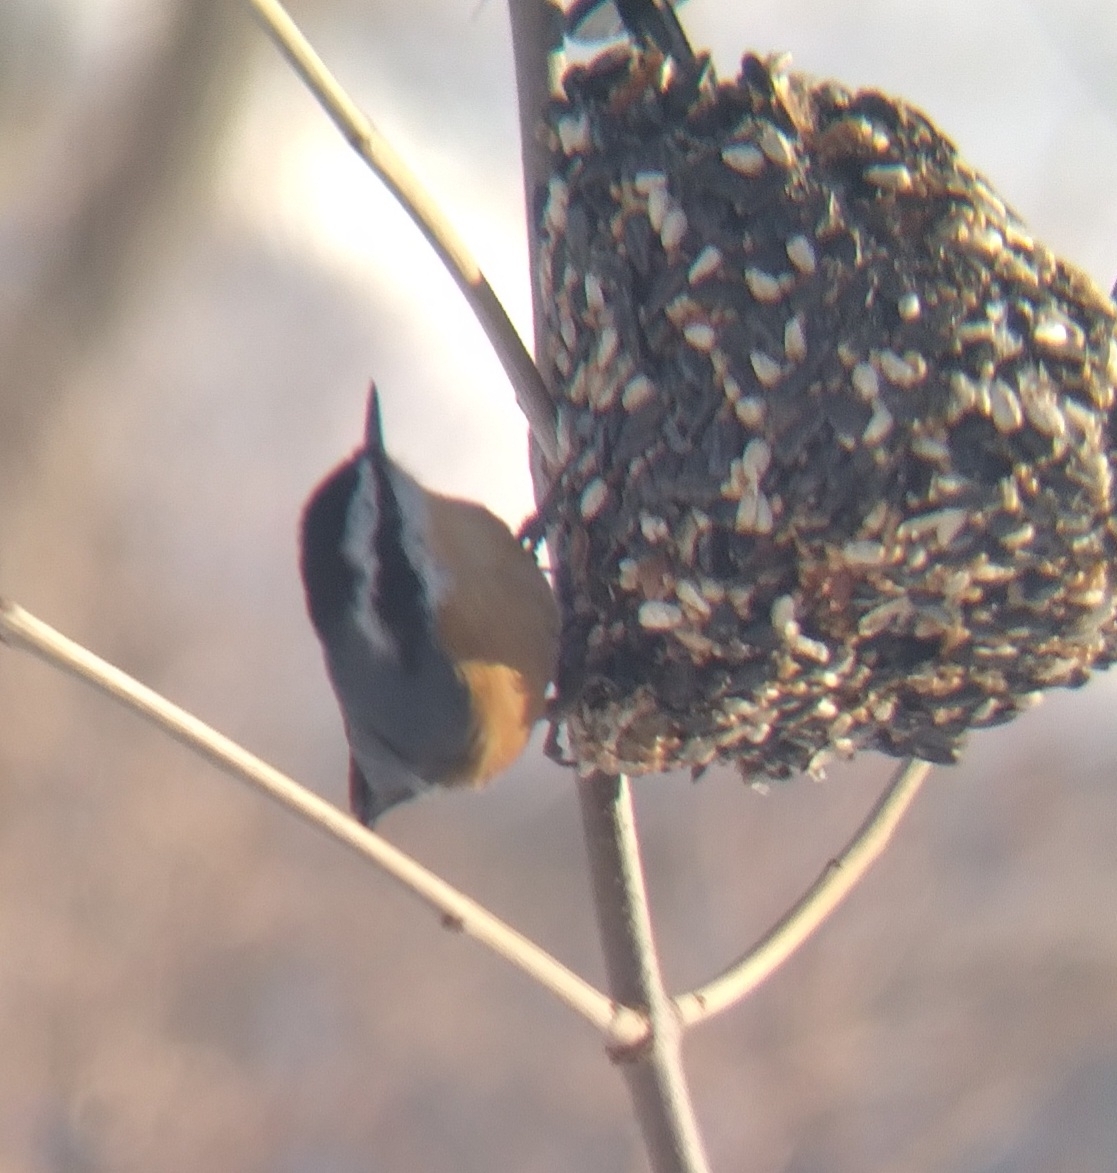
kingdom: Animalia
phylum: Chordata
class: Aves
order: Passeriformes
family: Sittidae
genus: Sitta
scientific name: Sitta canadensis
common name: Red-breasted nuthatch
